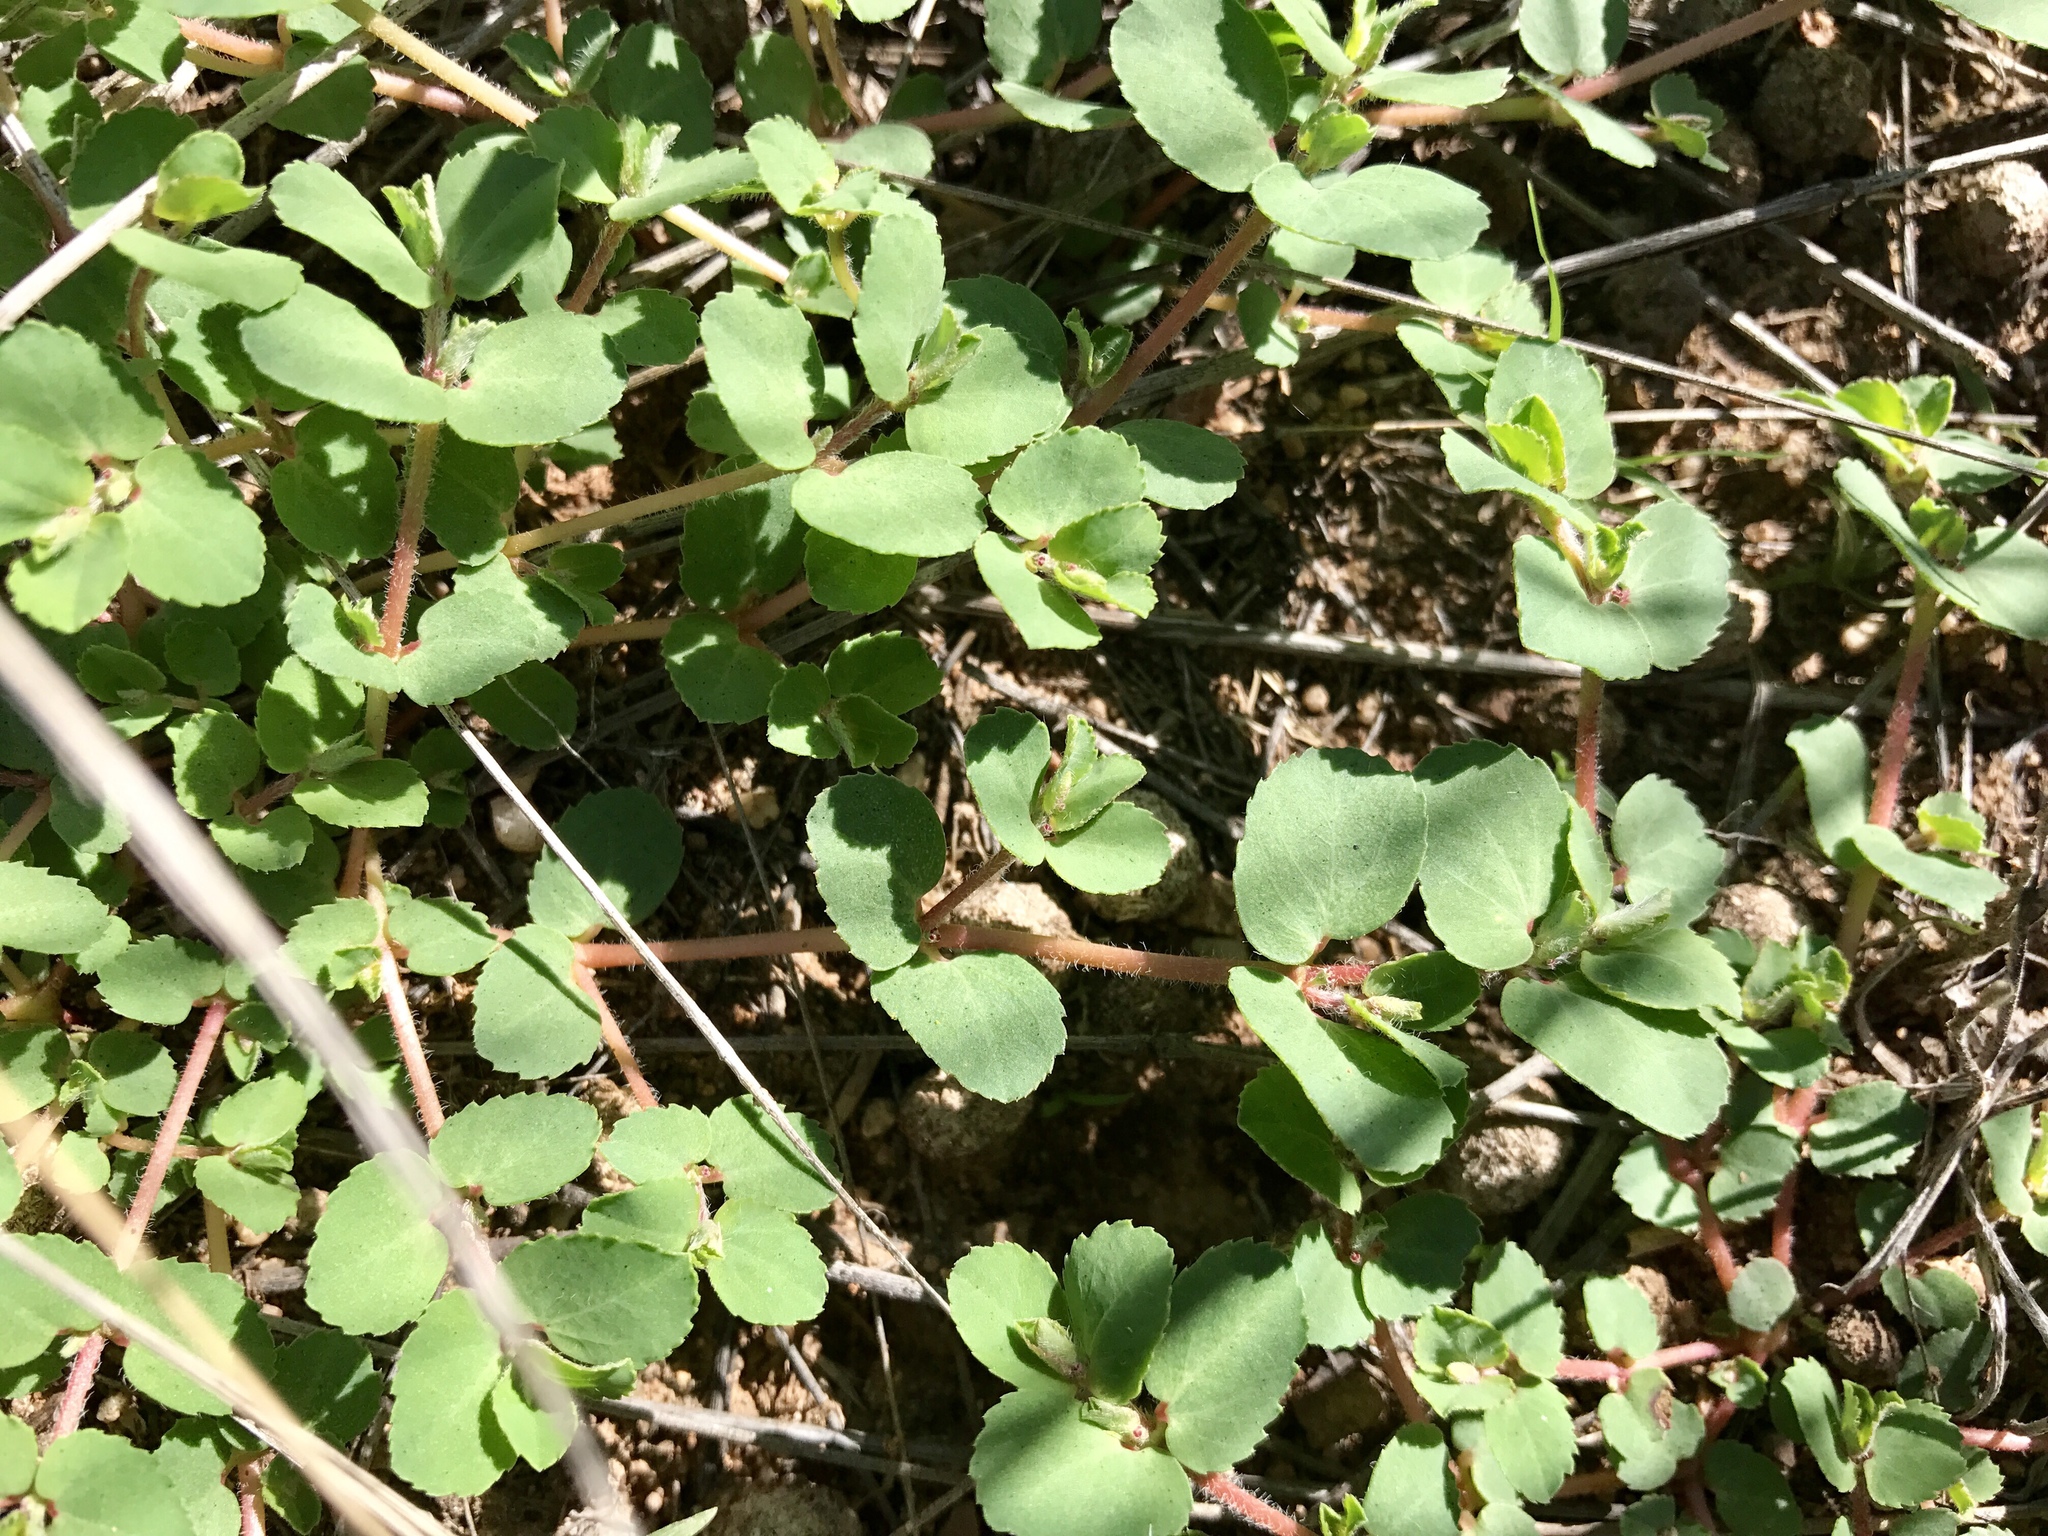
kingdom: Plantae
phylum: Tracheophyta
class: Magnoliopsida
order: Malpighiales
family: Euphorbiaceae
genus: Euphorbia
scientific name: Euphorbia stictospora
